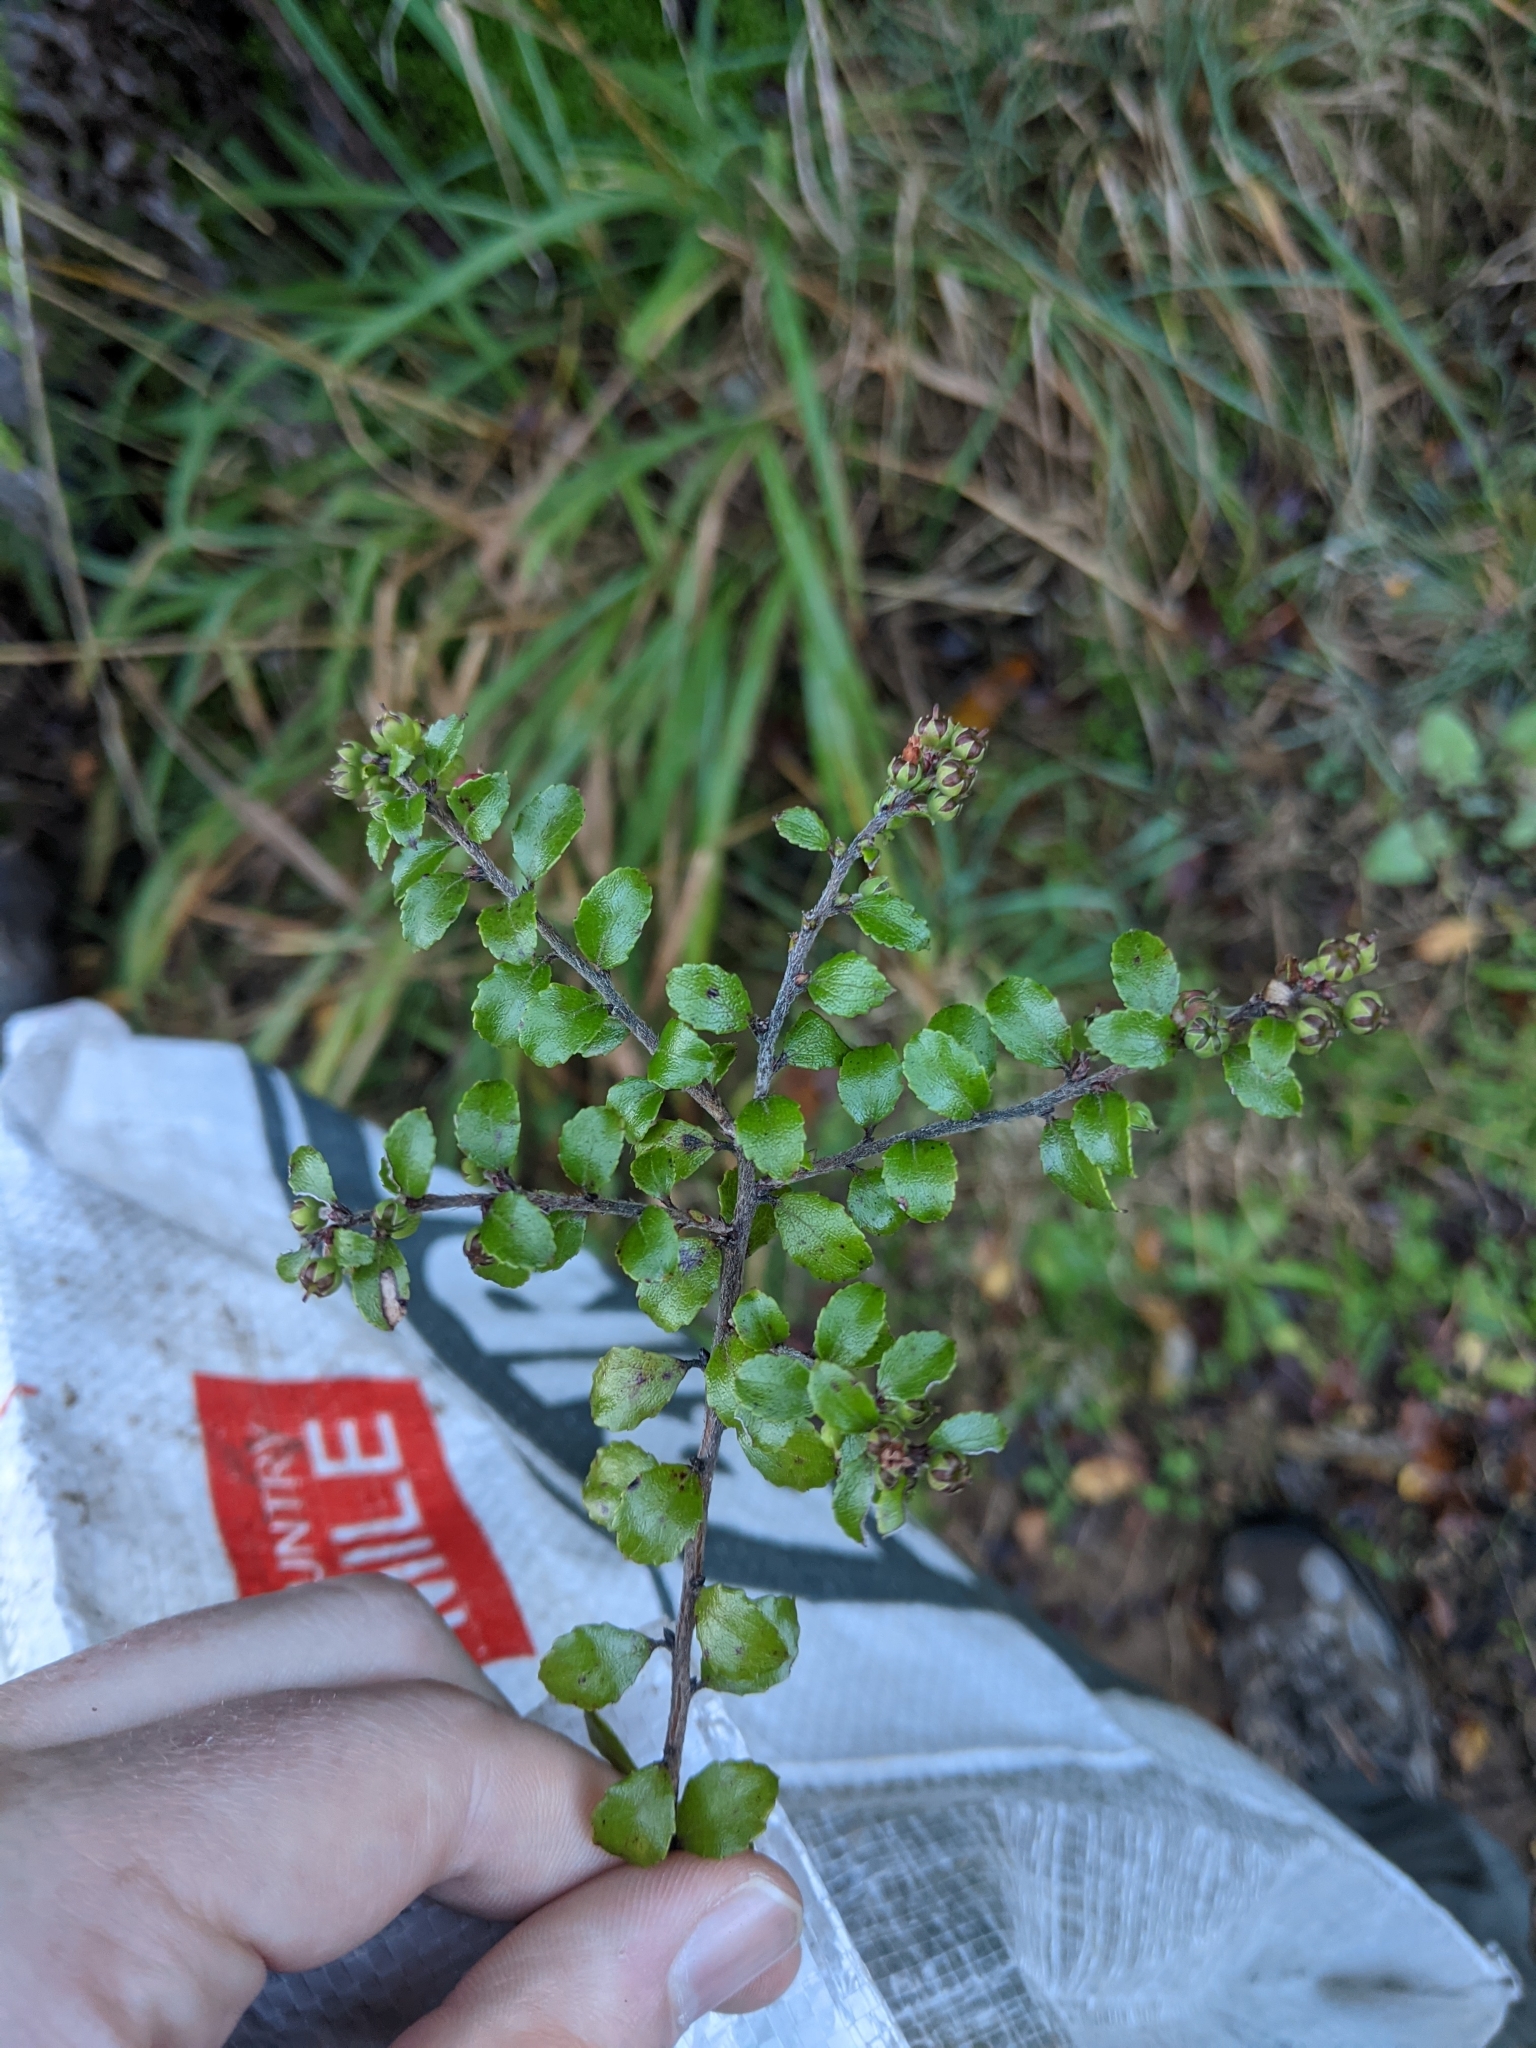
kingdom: Plantae
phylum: Tracheophyta
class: Magnoliopsida
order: Ericales
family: Ericaceae
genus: Gaultheria
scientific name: Gaultheria antipoda
